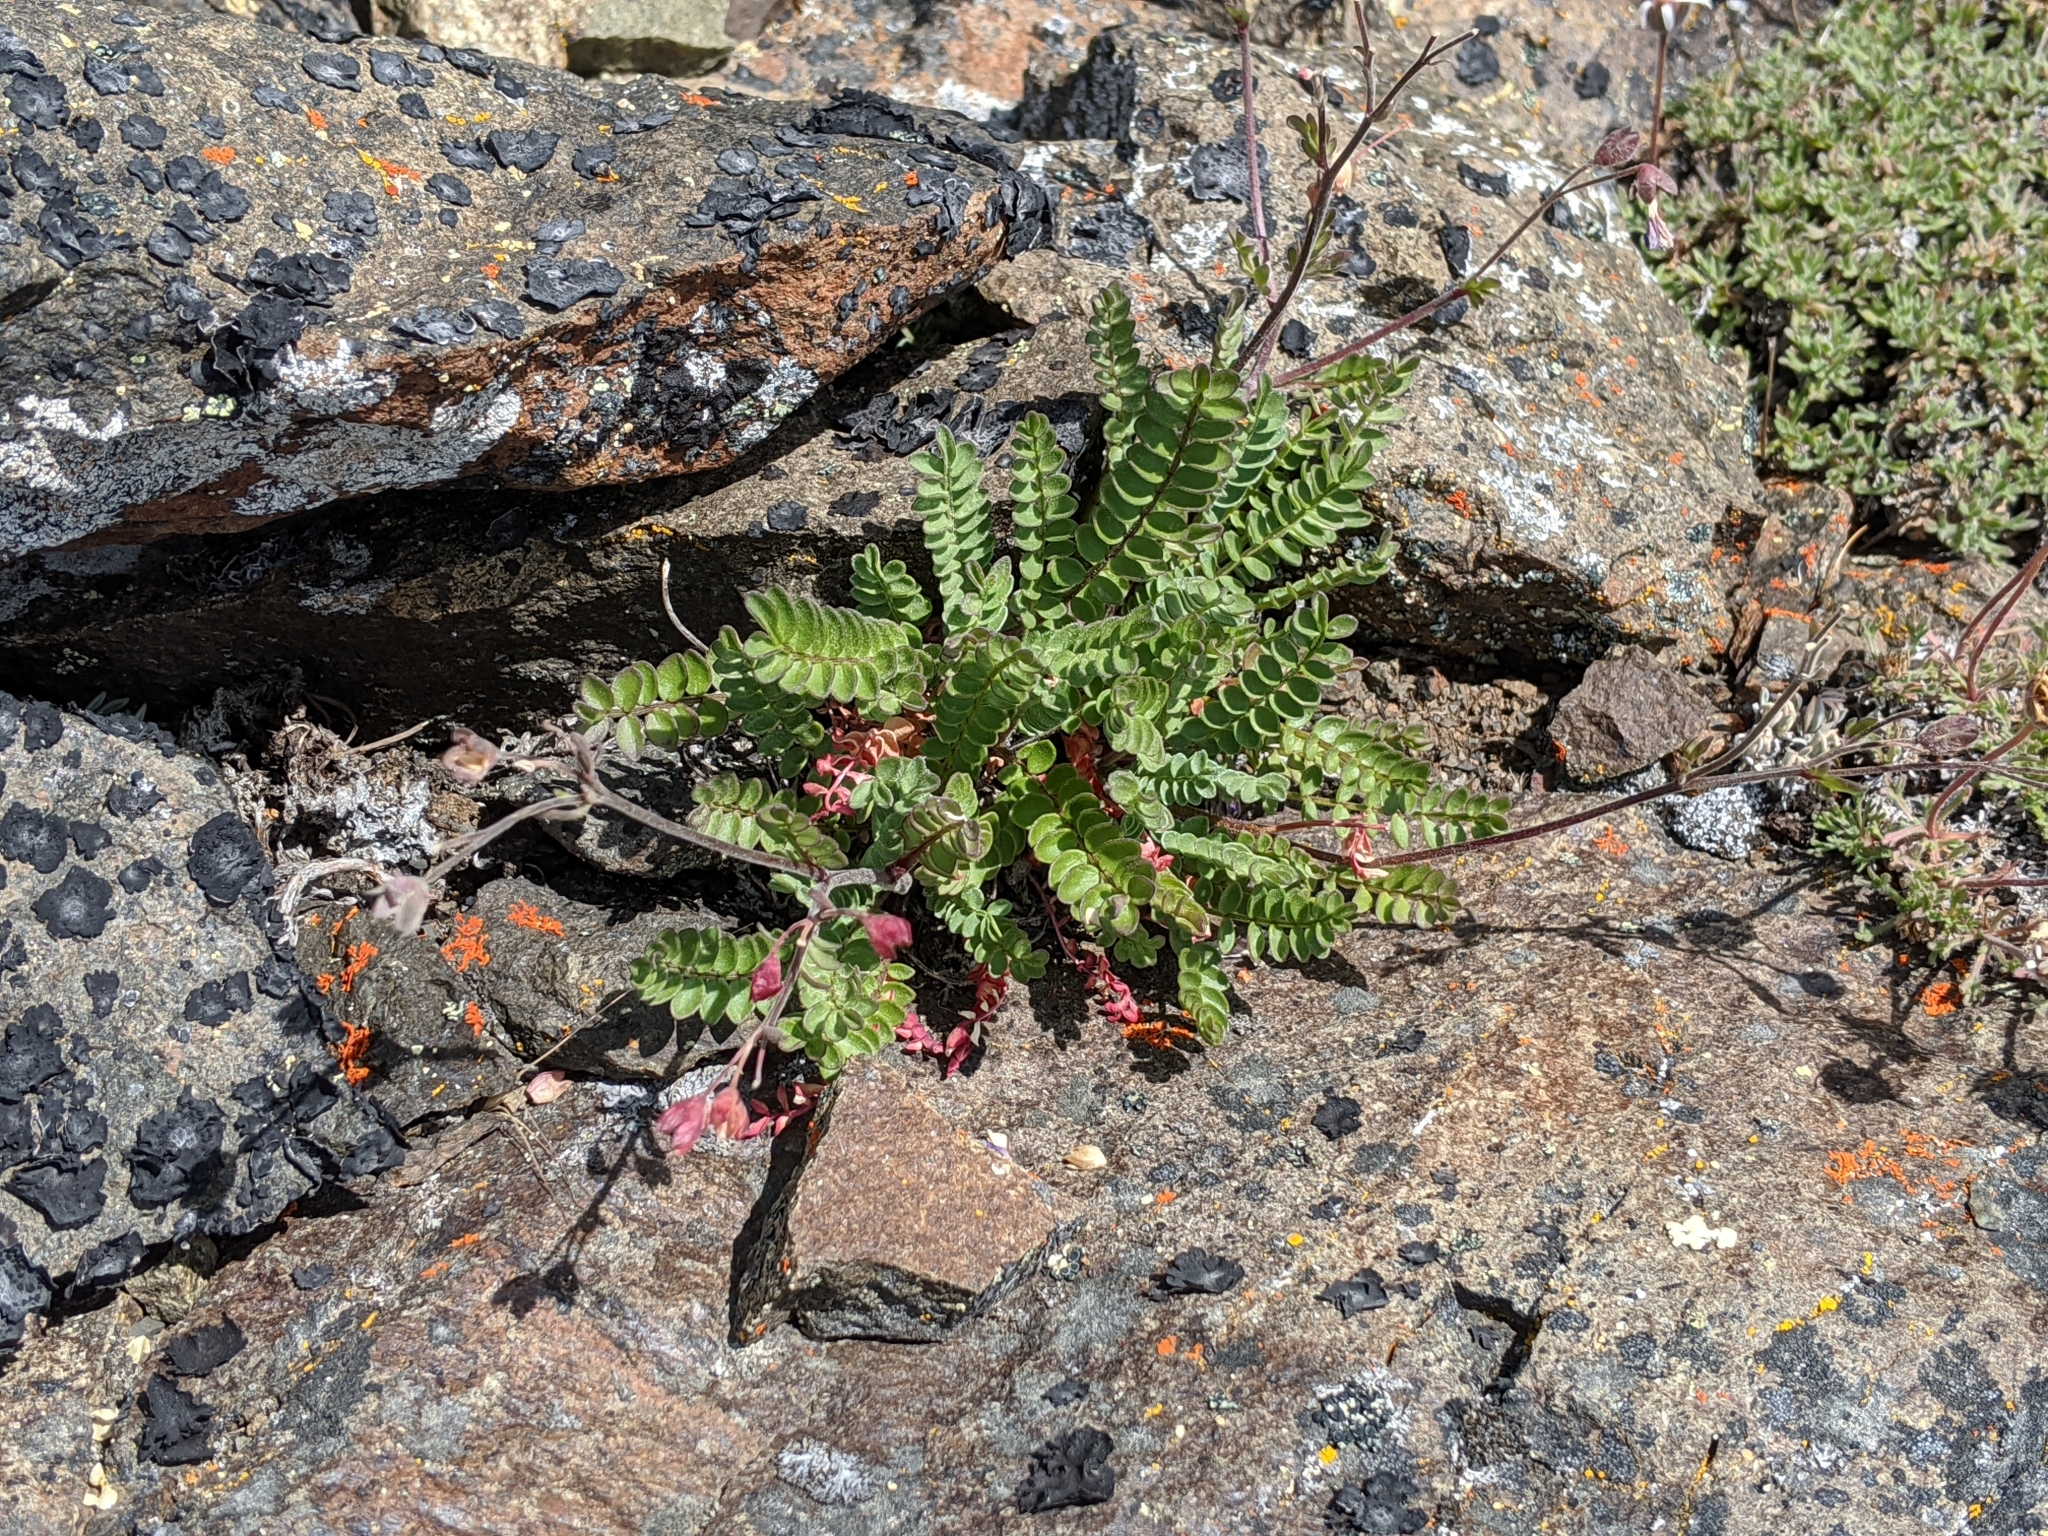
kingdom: Plantae
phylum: Tracheophyta
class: Magnoliopsida
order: Ericales
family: Polemoniaceae
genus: Polemonium
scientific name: Polemonium pulcherrimum
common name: Short jacob's-ladder
